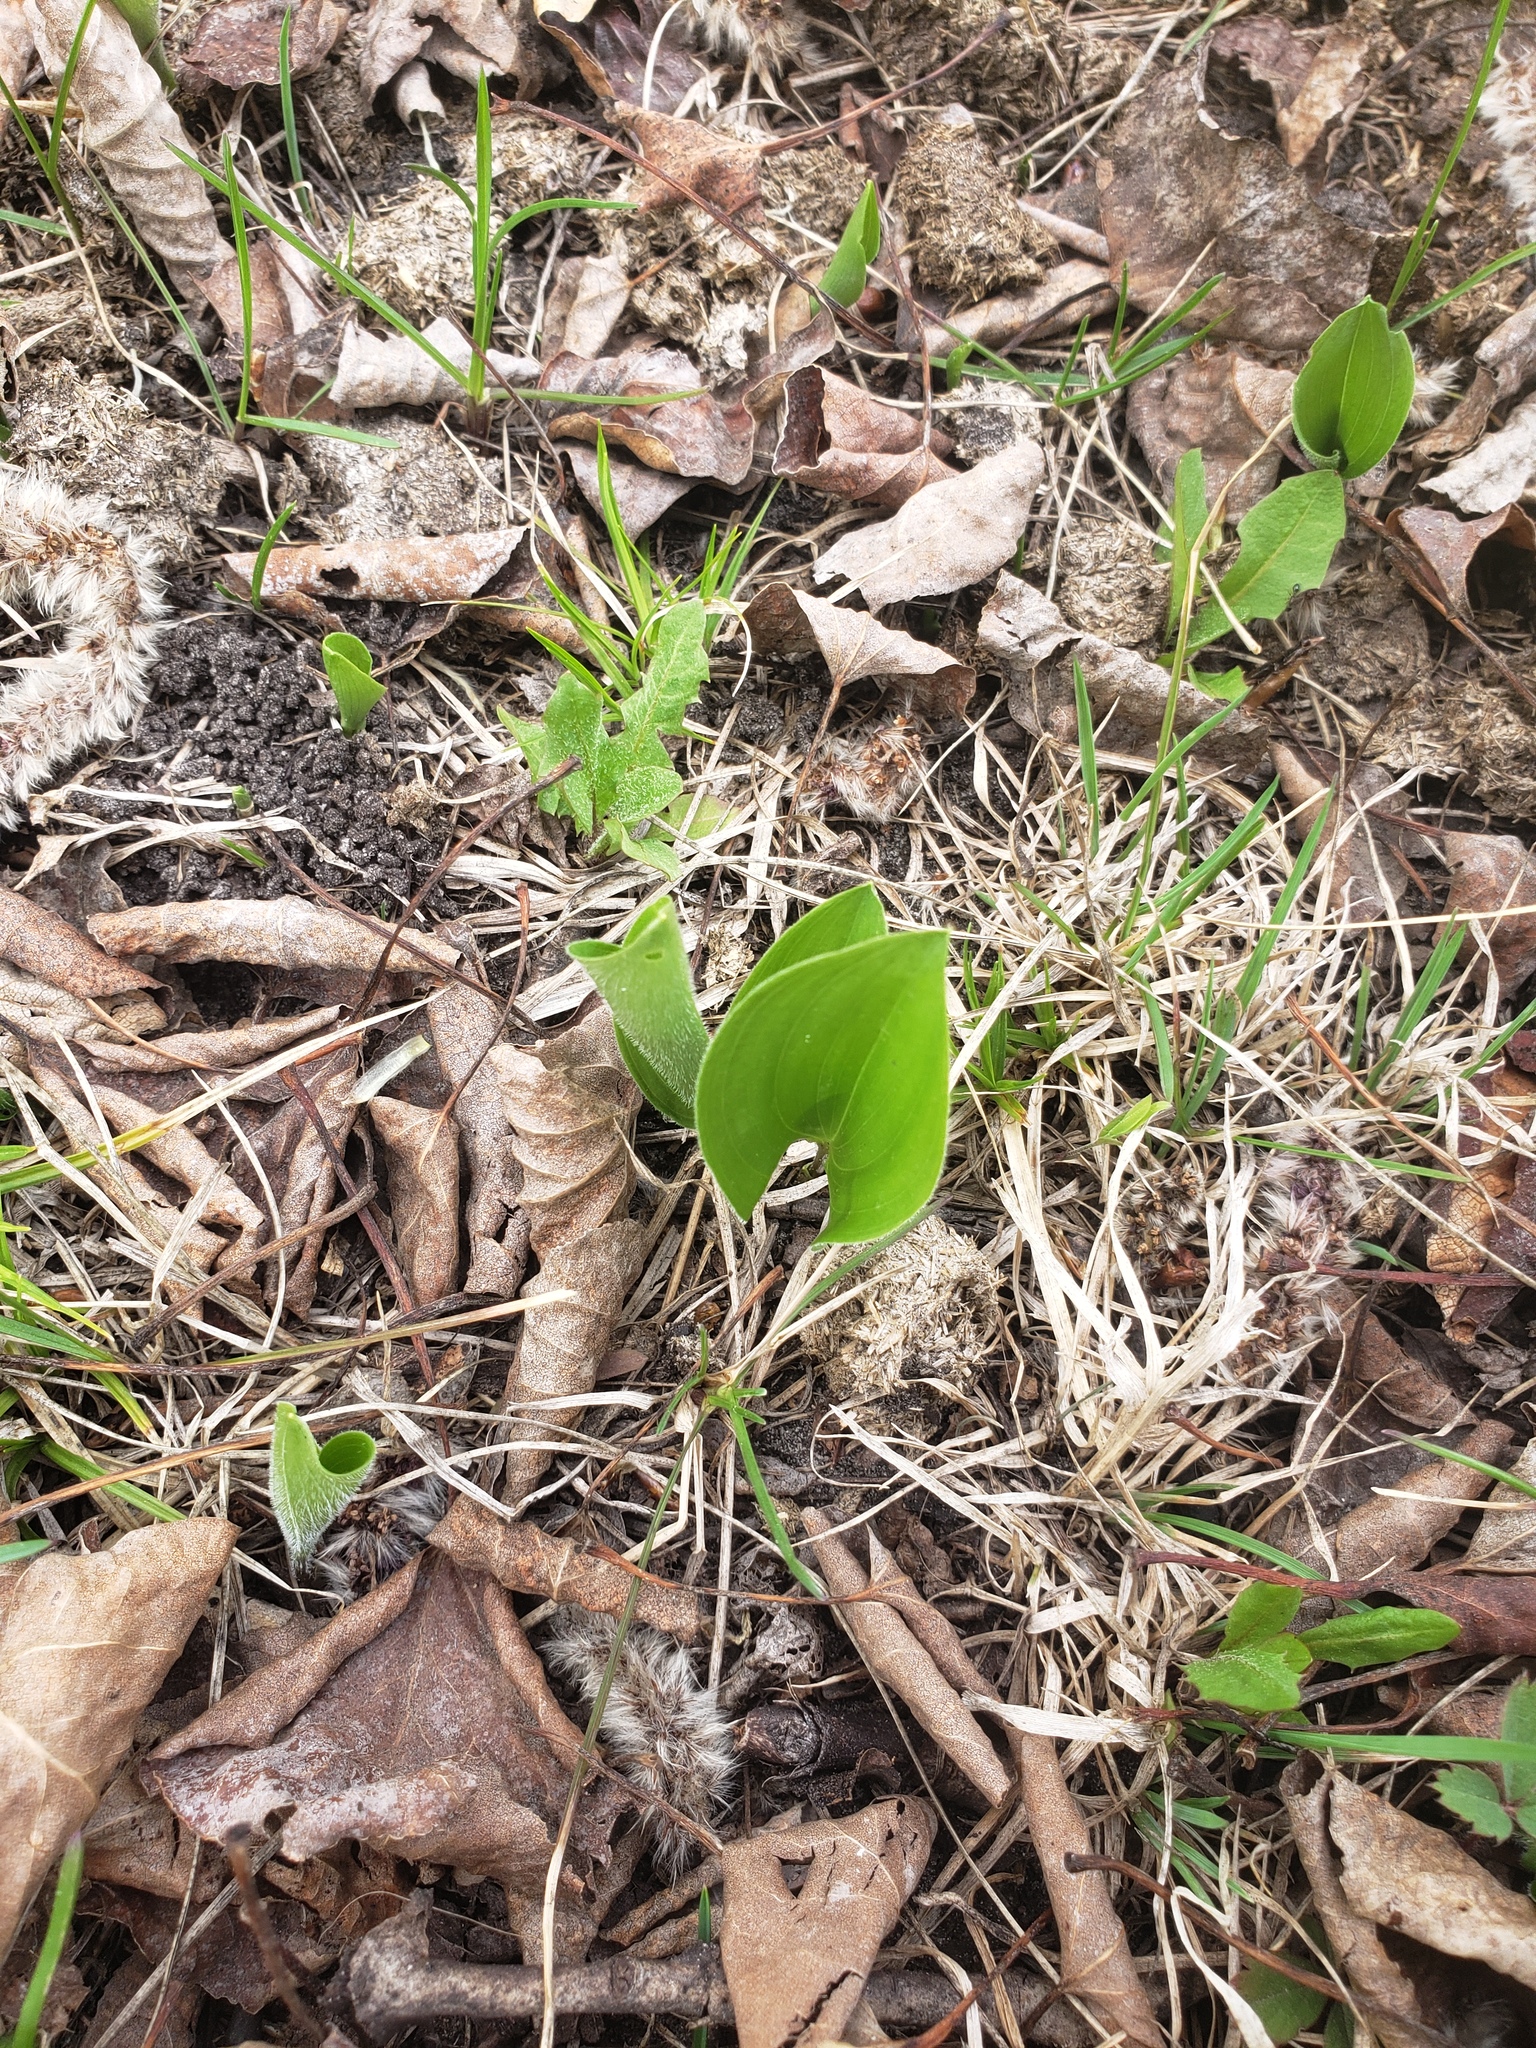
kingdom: Plantae
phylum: Tracheophyta
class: Liliopsida
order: Asparagales
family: Asparagaceae
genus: Maianthemum
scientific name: Maianthemum canadense
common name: False lily-of-the-valley
